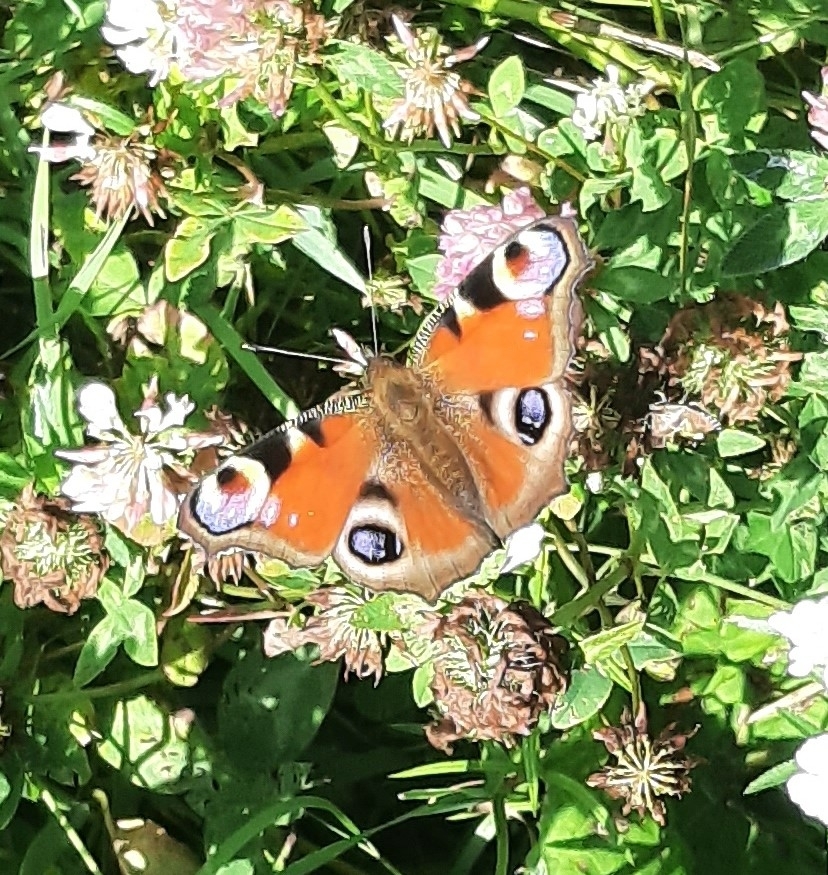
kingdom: Animalia
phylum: Arthropoda
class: Insecta
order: Lepidoptera
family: Nymphalidae
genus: Aglais
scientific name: Aglais io
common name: Peacock
